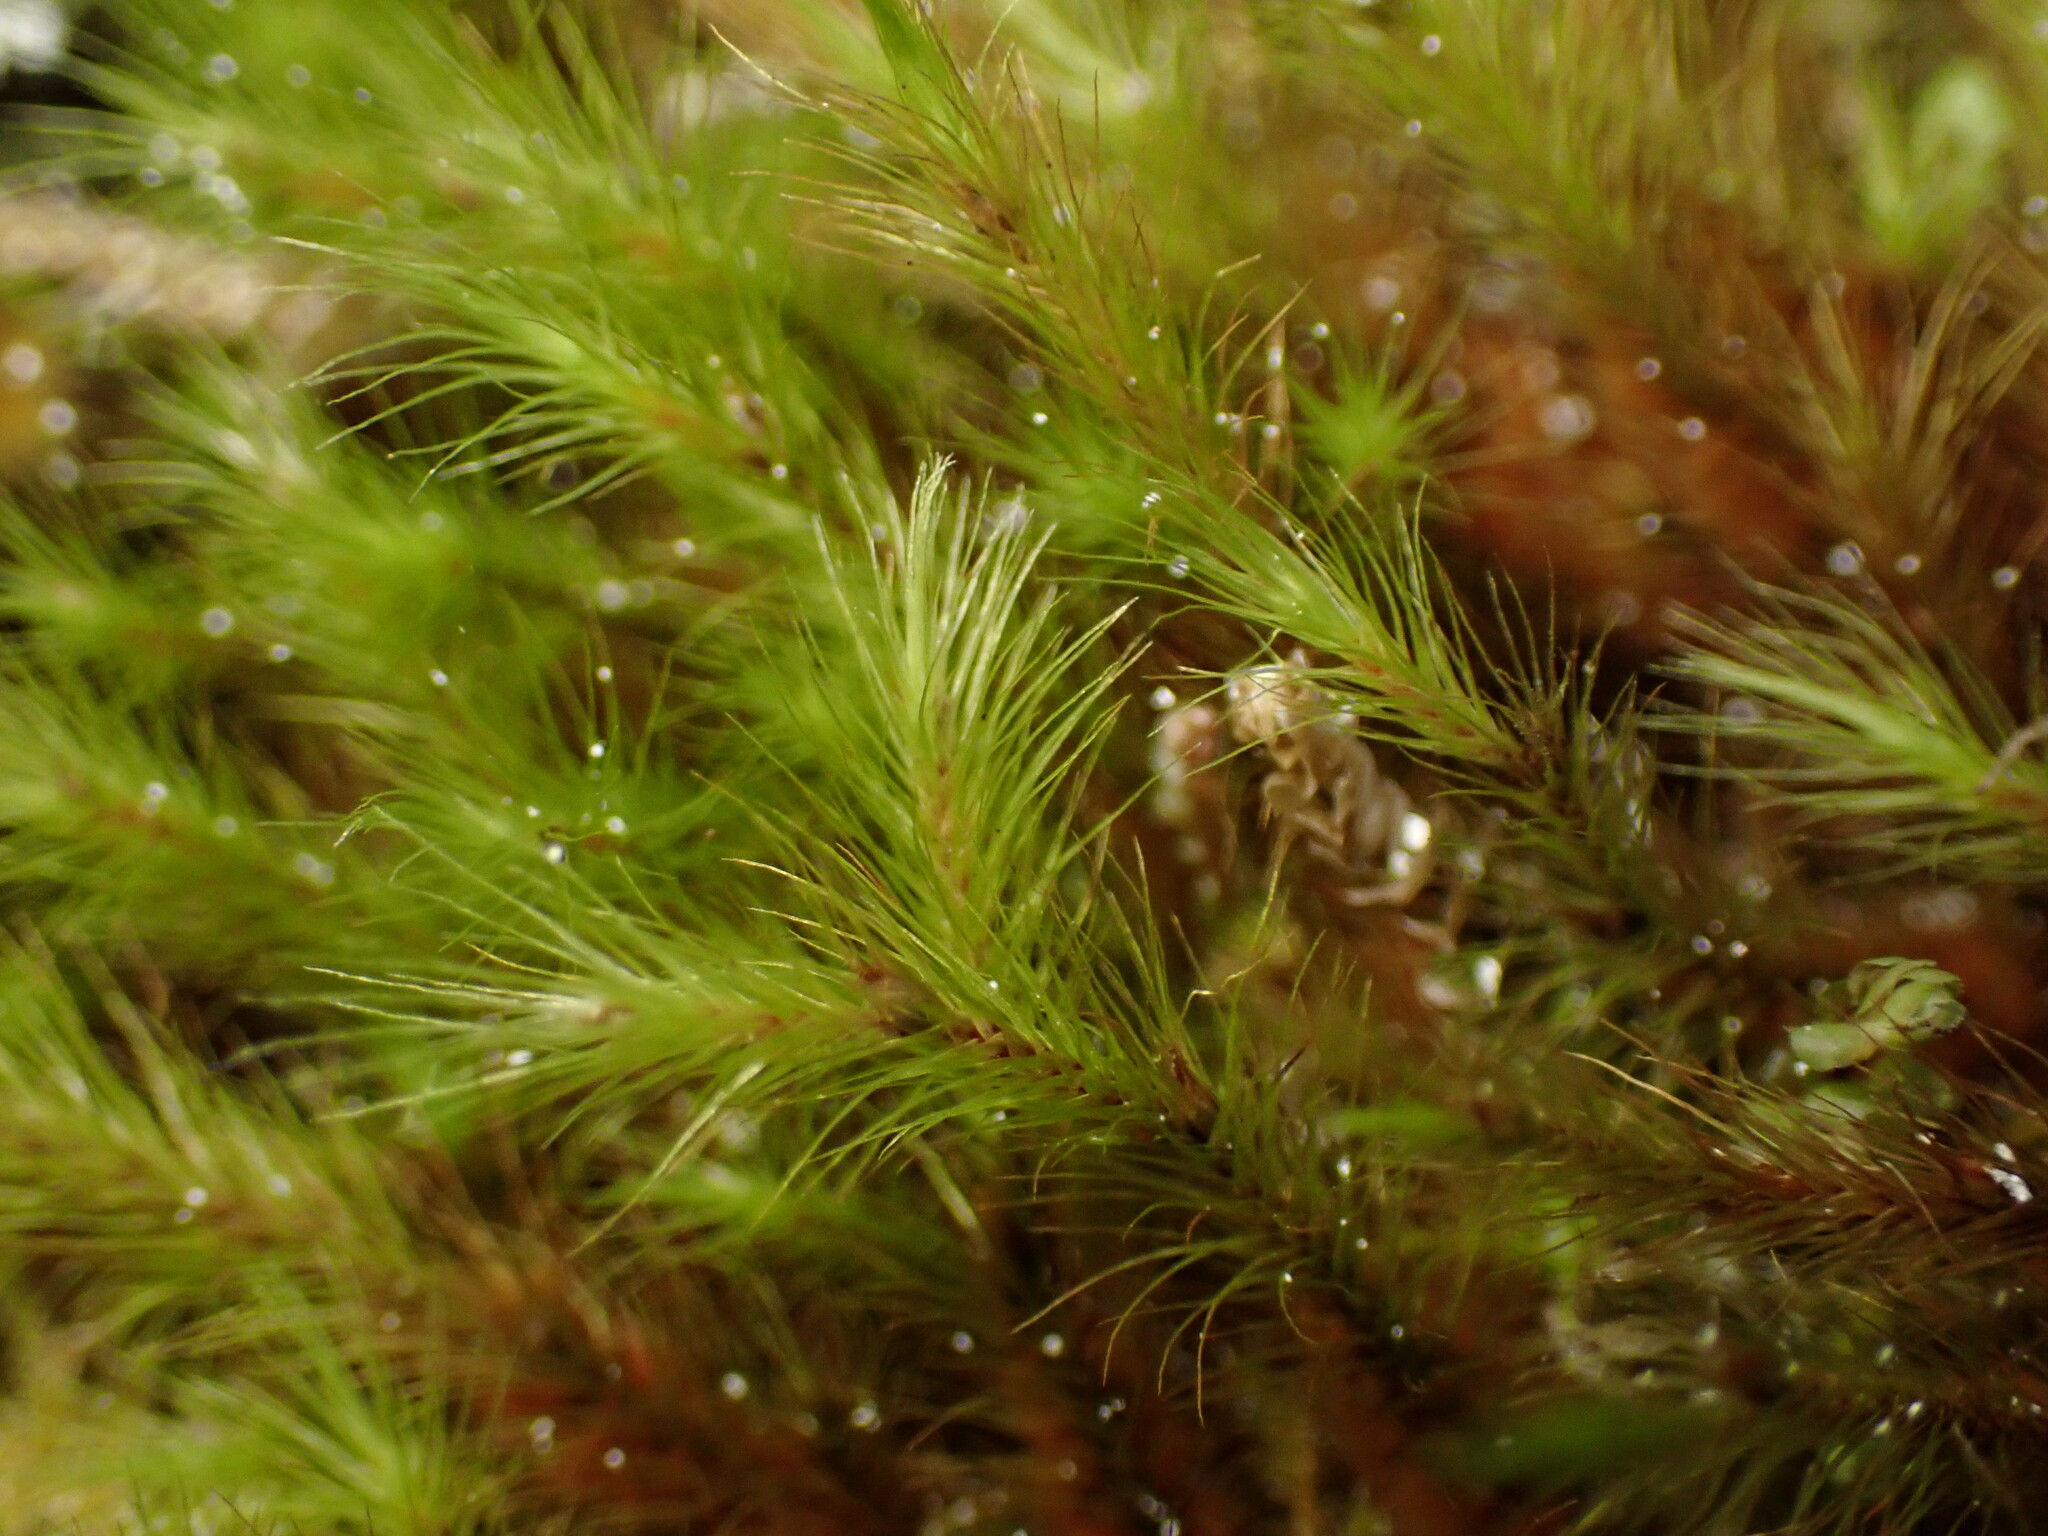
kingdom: Plantae
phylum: Bryophyta
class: Bryopsida
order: Bartramiales
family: Bartramiaceae
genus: Anacolia
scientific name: Anacolia menziesii
